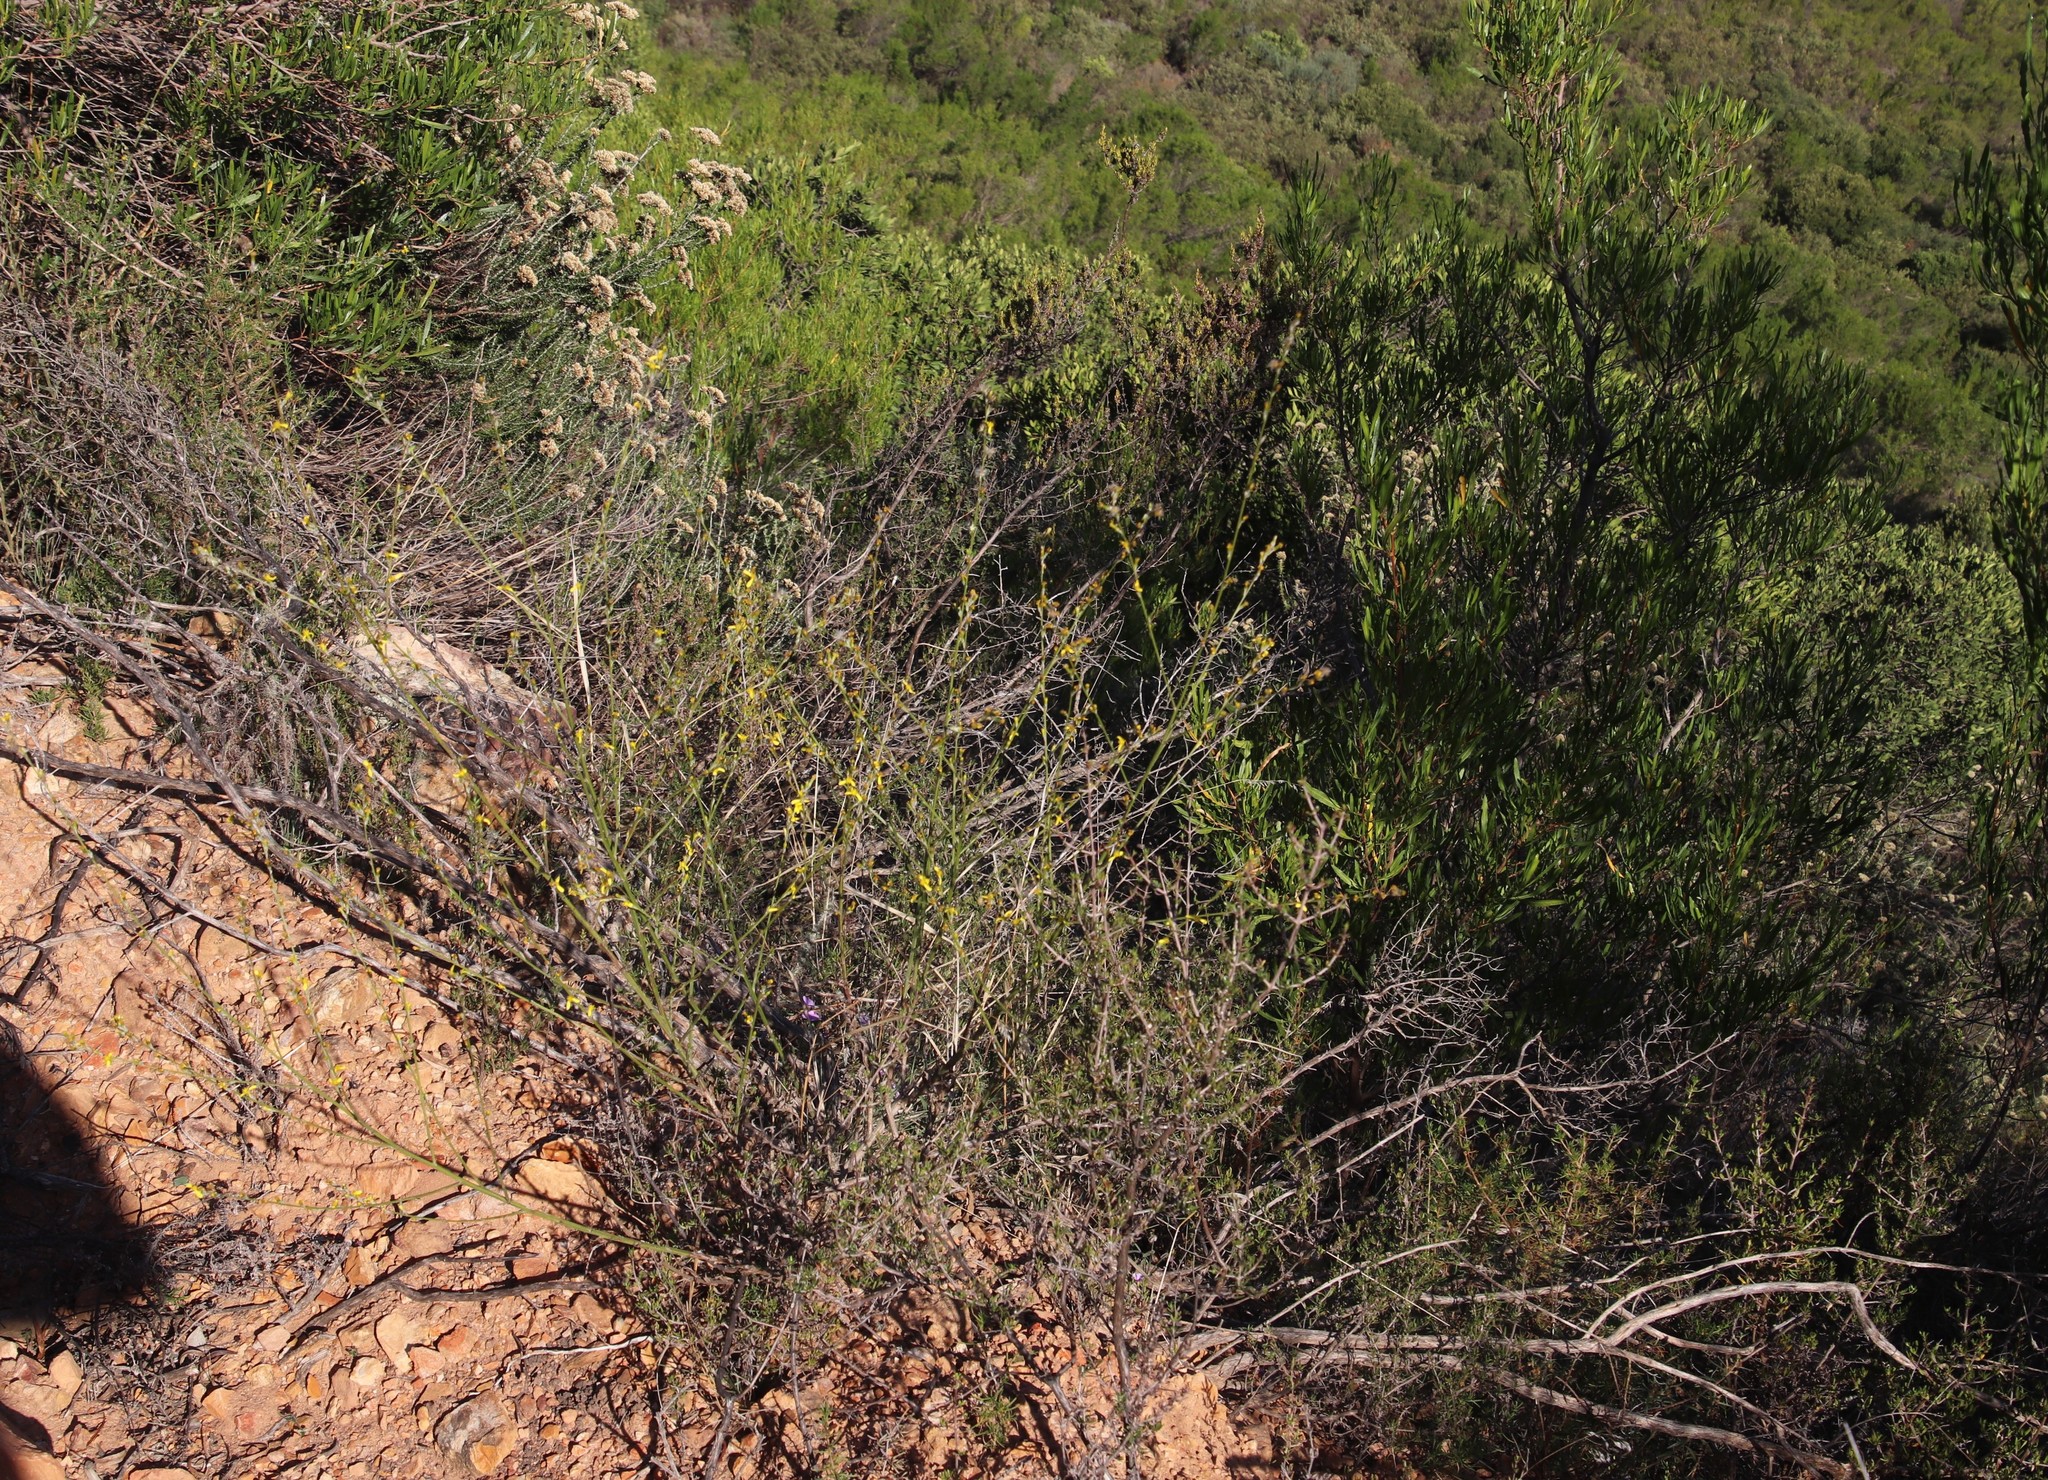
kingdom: Plantae
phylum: Tracheophyta
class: Magnoliopsida
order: Asterales
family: Asteraceae
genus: Senecio
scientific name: Senecio pubigerus
